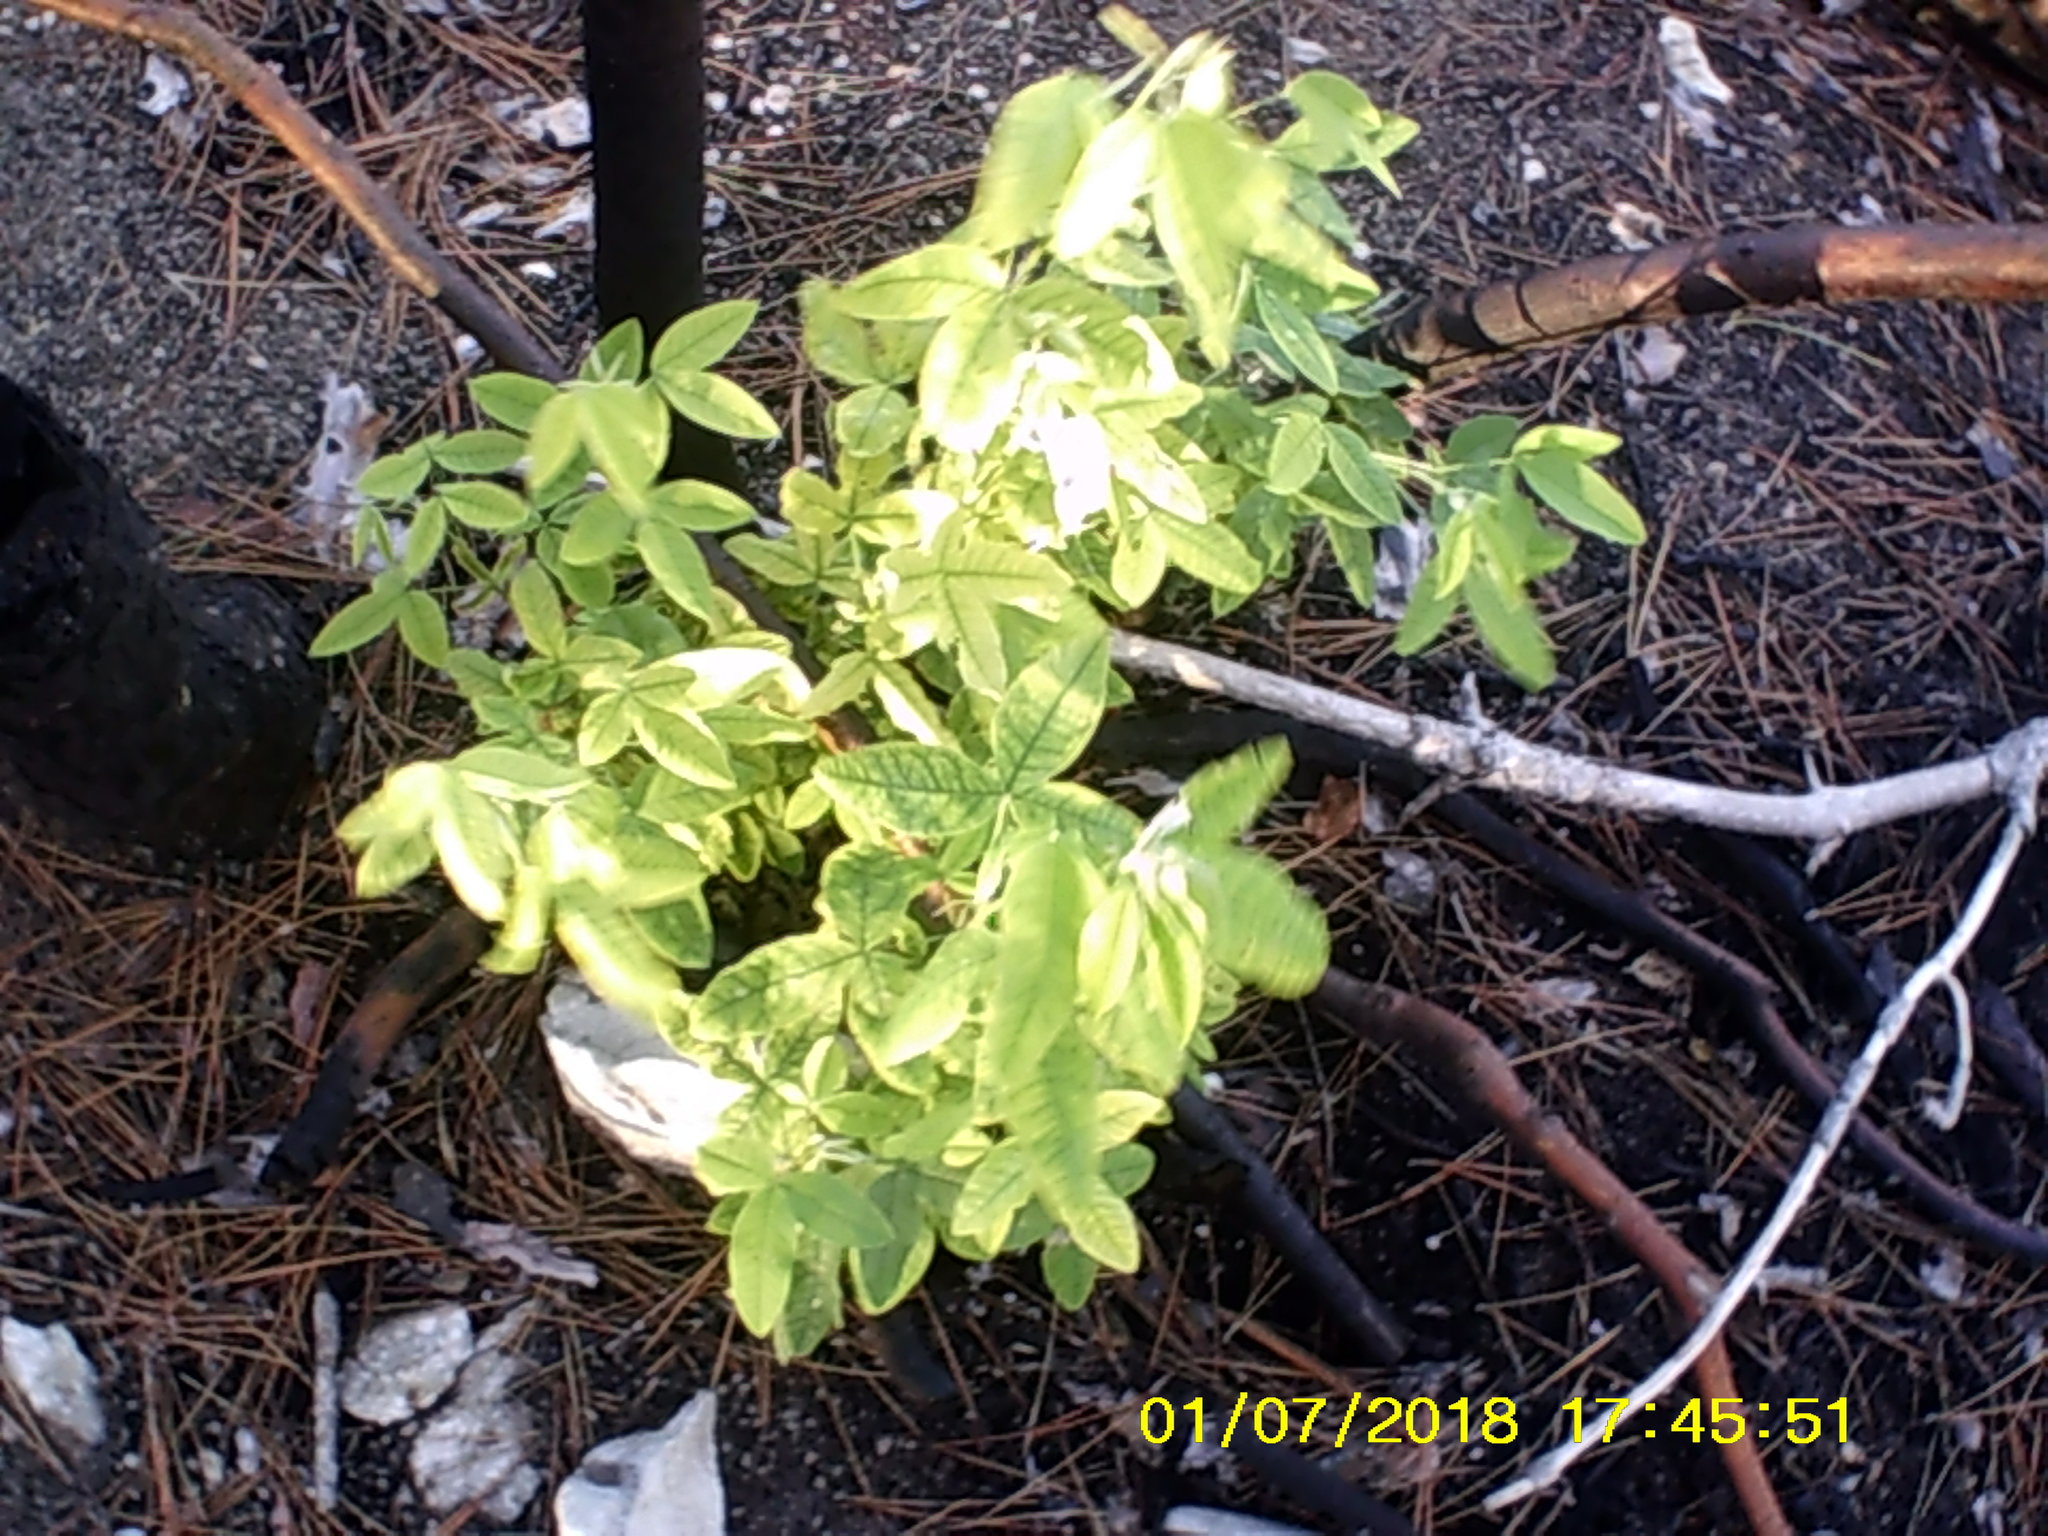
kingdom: Plantae
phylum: Tracheophyta
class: Magnoliopsida
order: Fabales
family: Fabaceae
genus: Laburnum
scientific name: Laburnum anagyroides
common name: Laburnum
